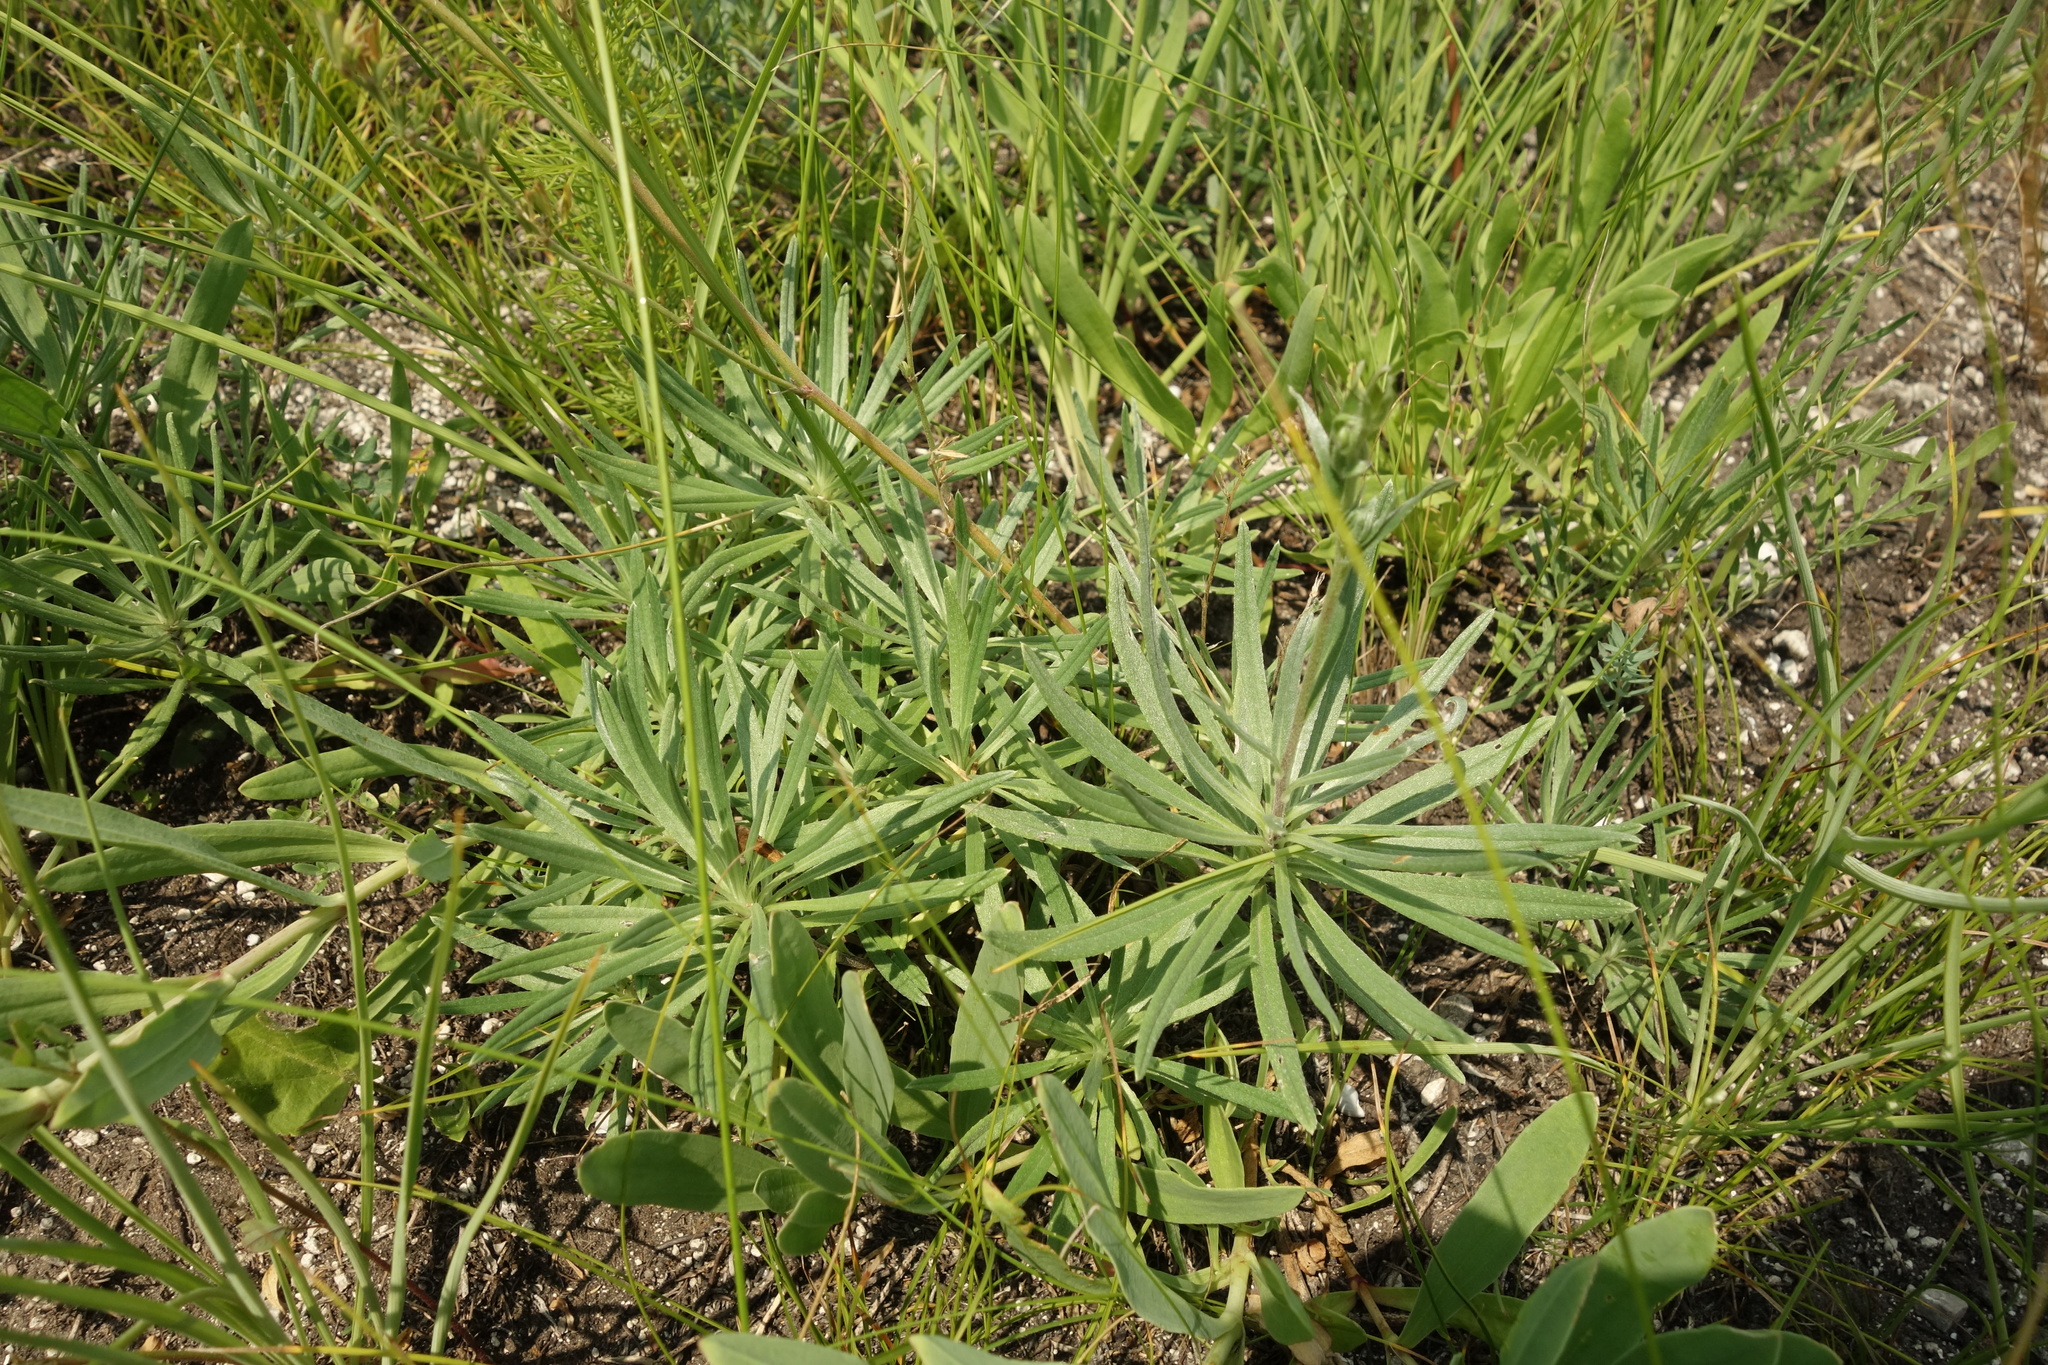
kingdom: Plantae
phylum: Tracheophyta
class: Magnoliopsida
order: Boraginales
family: Boraginaceae
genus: Onosma
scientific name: Onosma simplicissima
